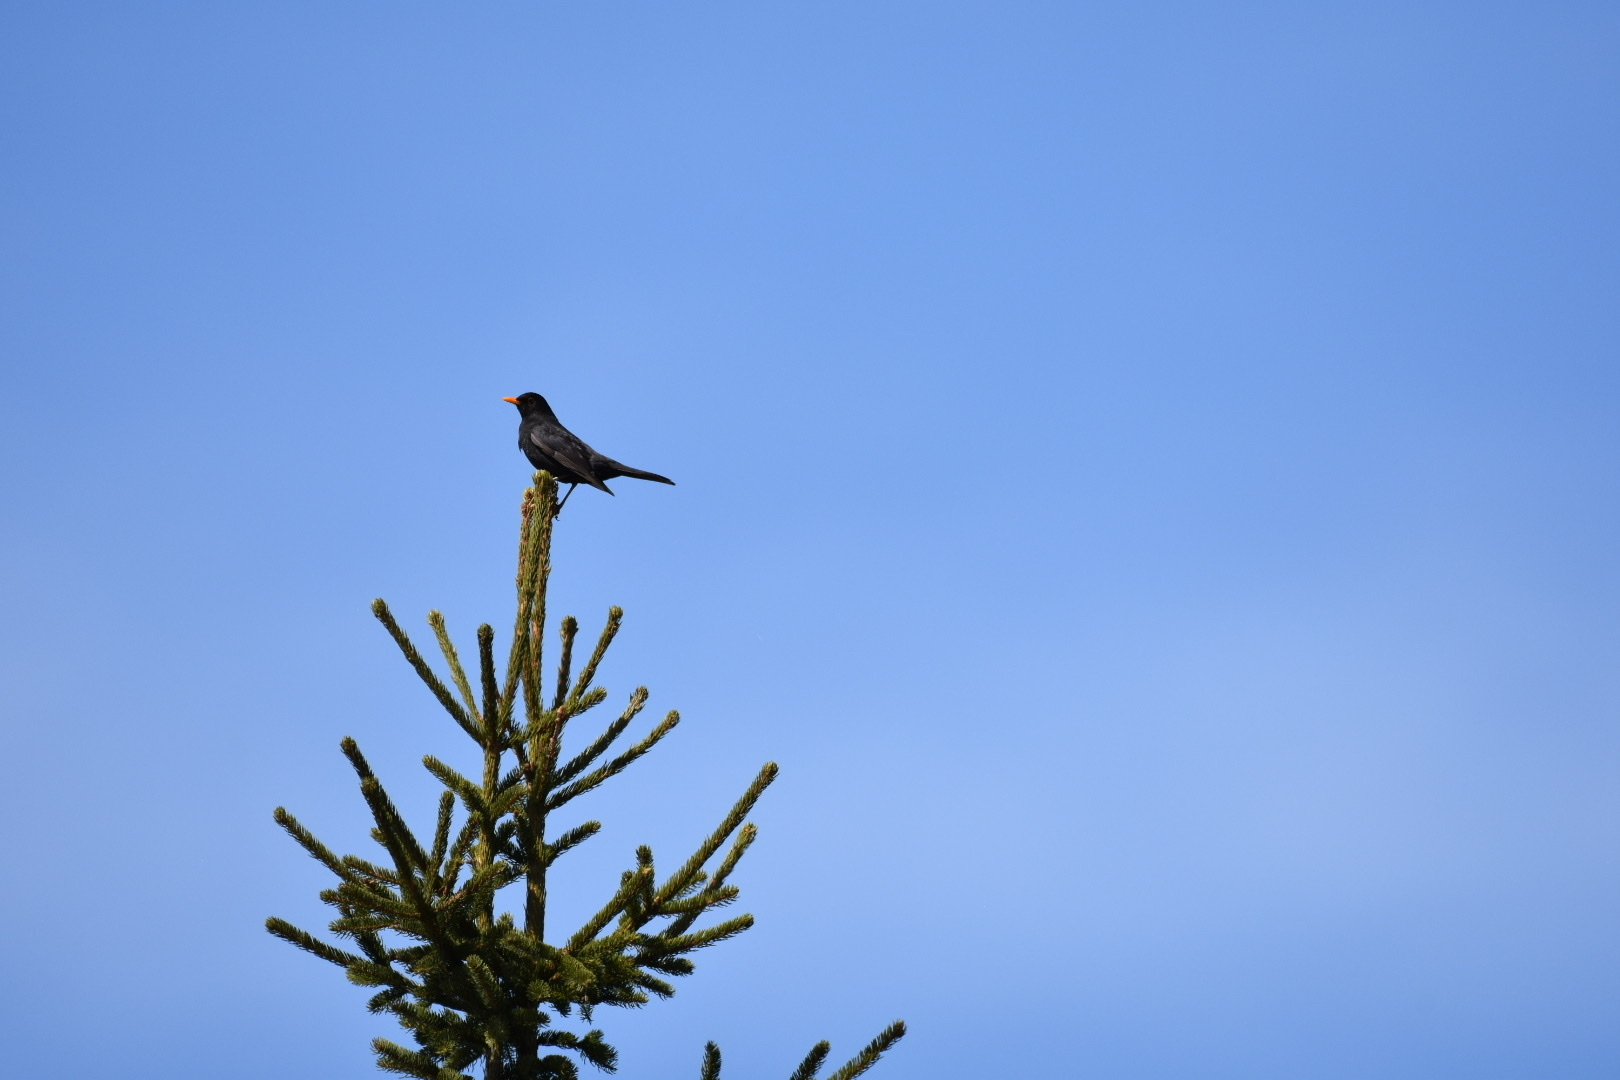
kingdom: Animalia
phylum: Chordata
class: Aves
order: Passeriformes
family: Turdidae
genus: Turdus
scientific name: Turdus merula
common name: Common blackbird
